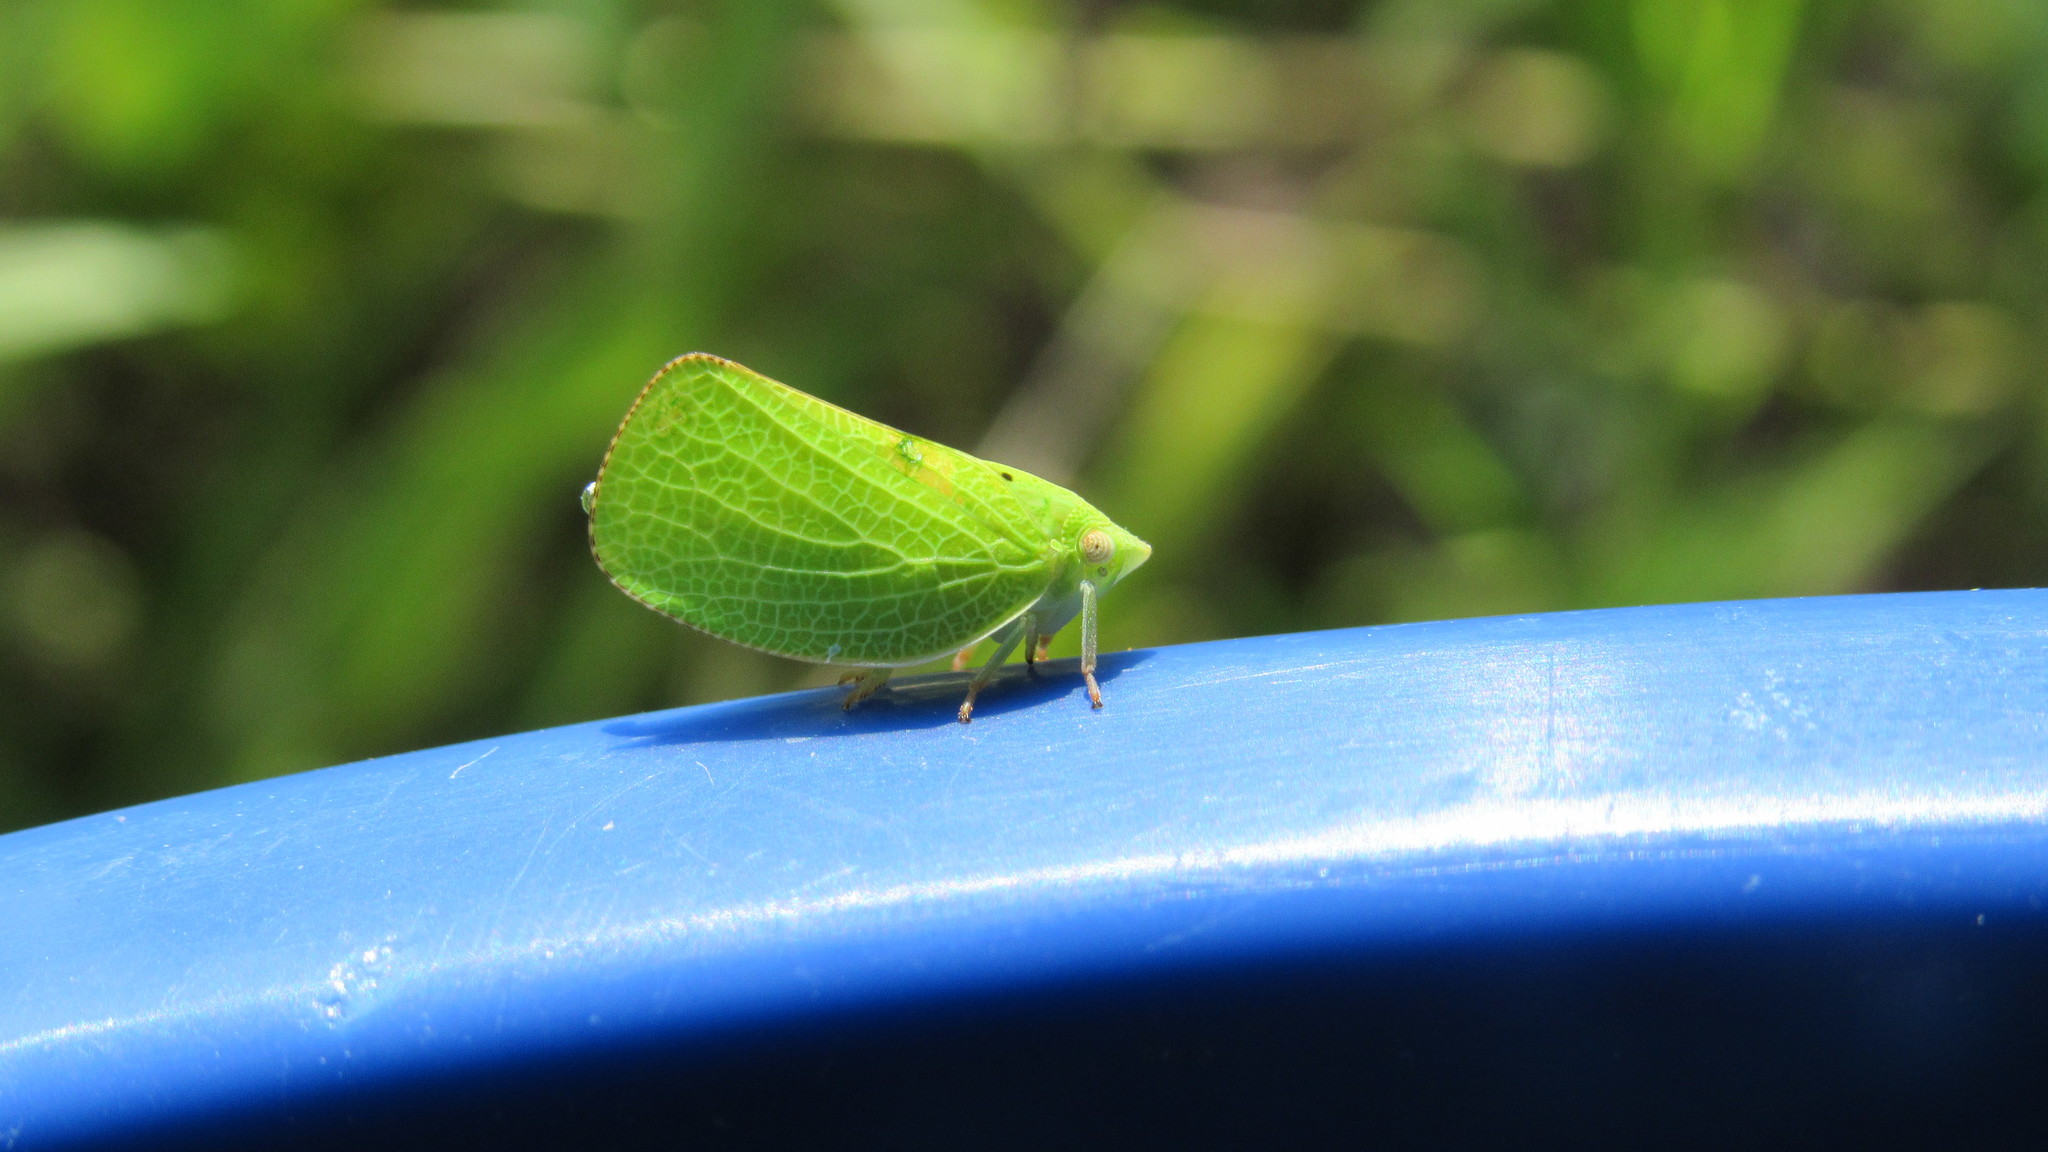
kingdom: Animalia
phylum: Arthropoda
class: Insecta
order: Hemiptera
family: Acanaloniidae
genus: Acanalonia
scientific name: Acanalonia conica
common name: Green cone-headed planthopper
